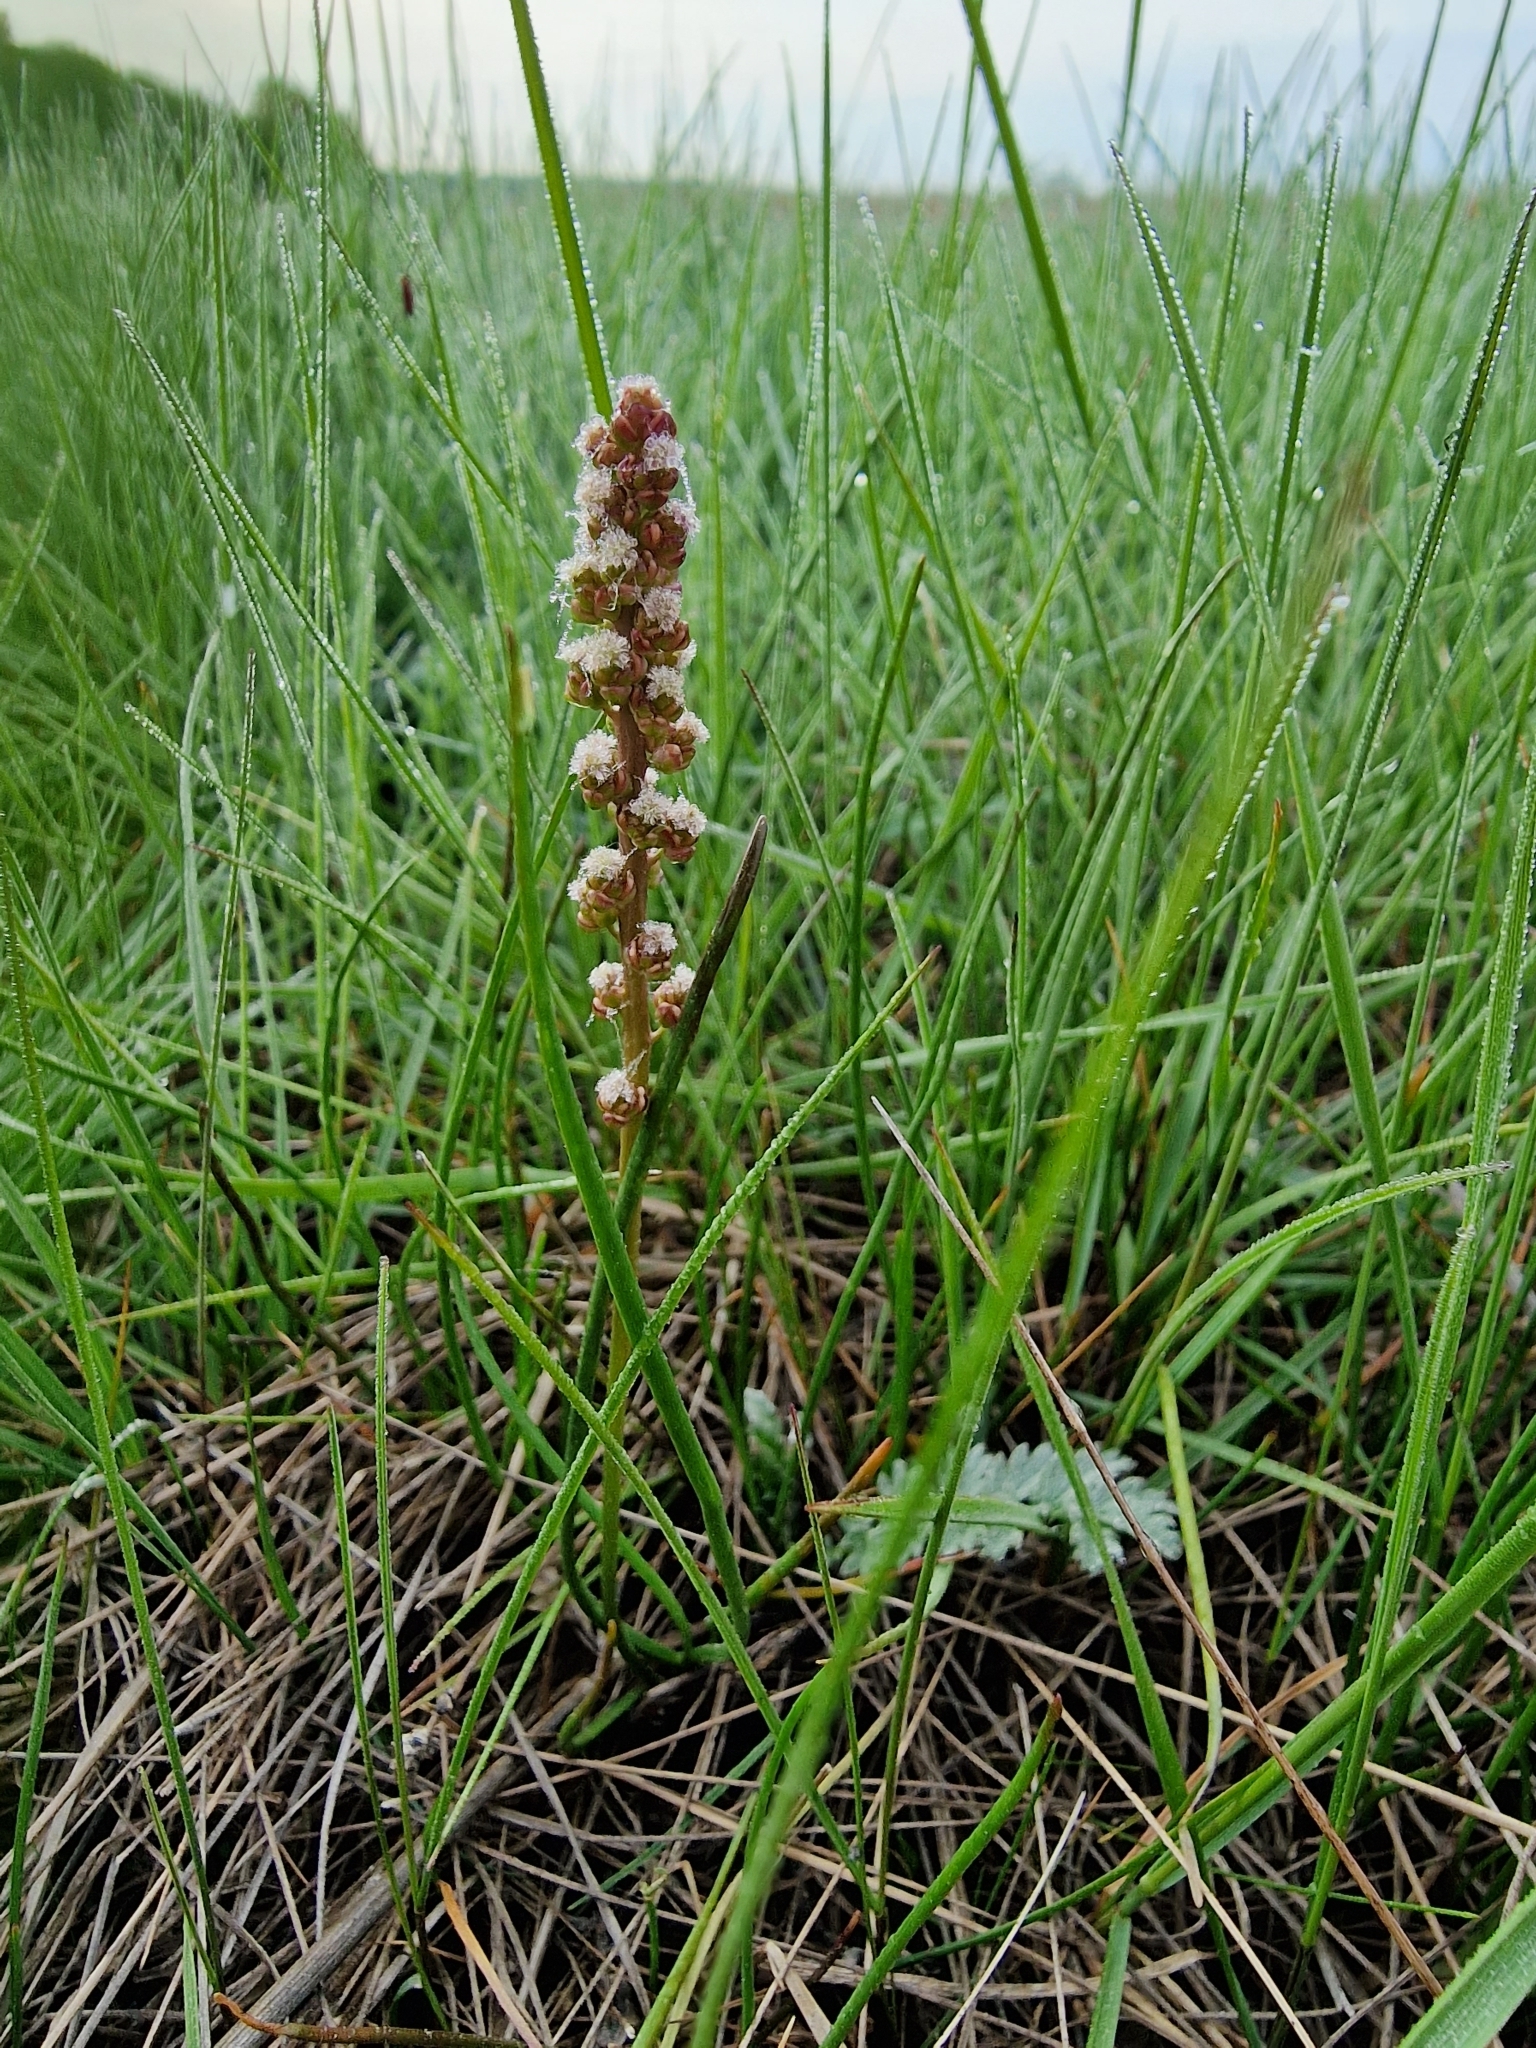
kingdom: Plantae
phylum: Tracheophyta
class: Liliopsida
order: Alismatales
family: Juncaginaceae
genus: Triglochin
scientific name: Triglochin maritima
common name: Sea arrowgrass
